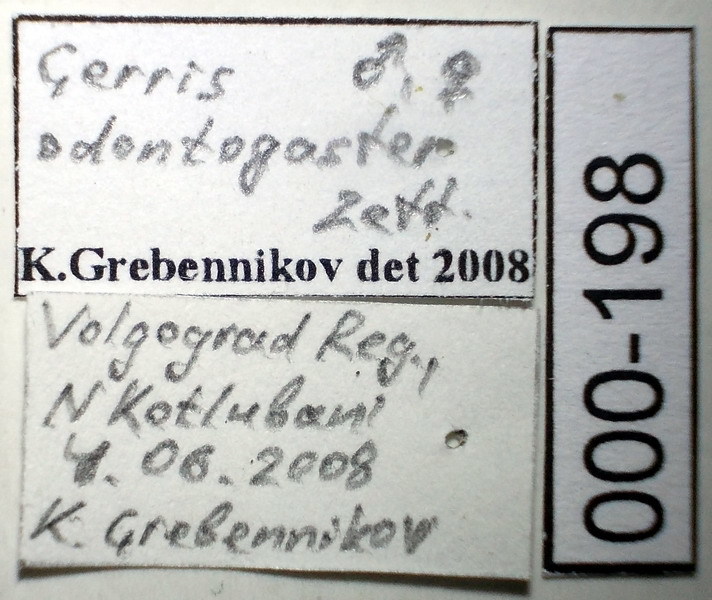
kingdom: Animalia
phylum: Arthropoda
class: Insecta
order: Hemiptera
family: Gerridae
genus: Gerris
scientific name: Gerris odontogaster
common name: Toothed pondskater
